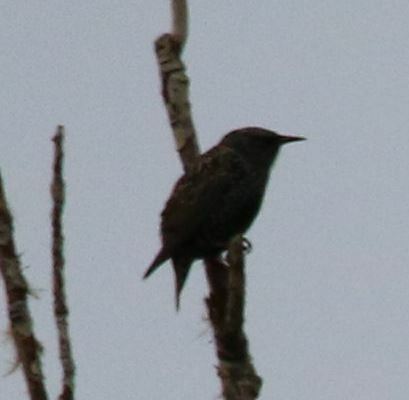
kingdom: Animalia
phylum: Chordata
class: Aves
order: Passeriformes
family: Sturnidae
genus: Sturnus
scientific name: Sturnus vulgaris
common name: Common starling
